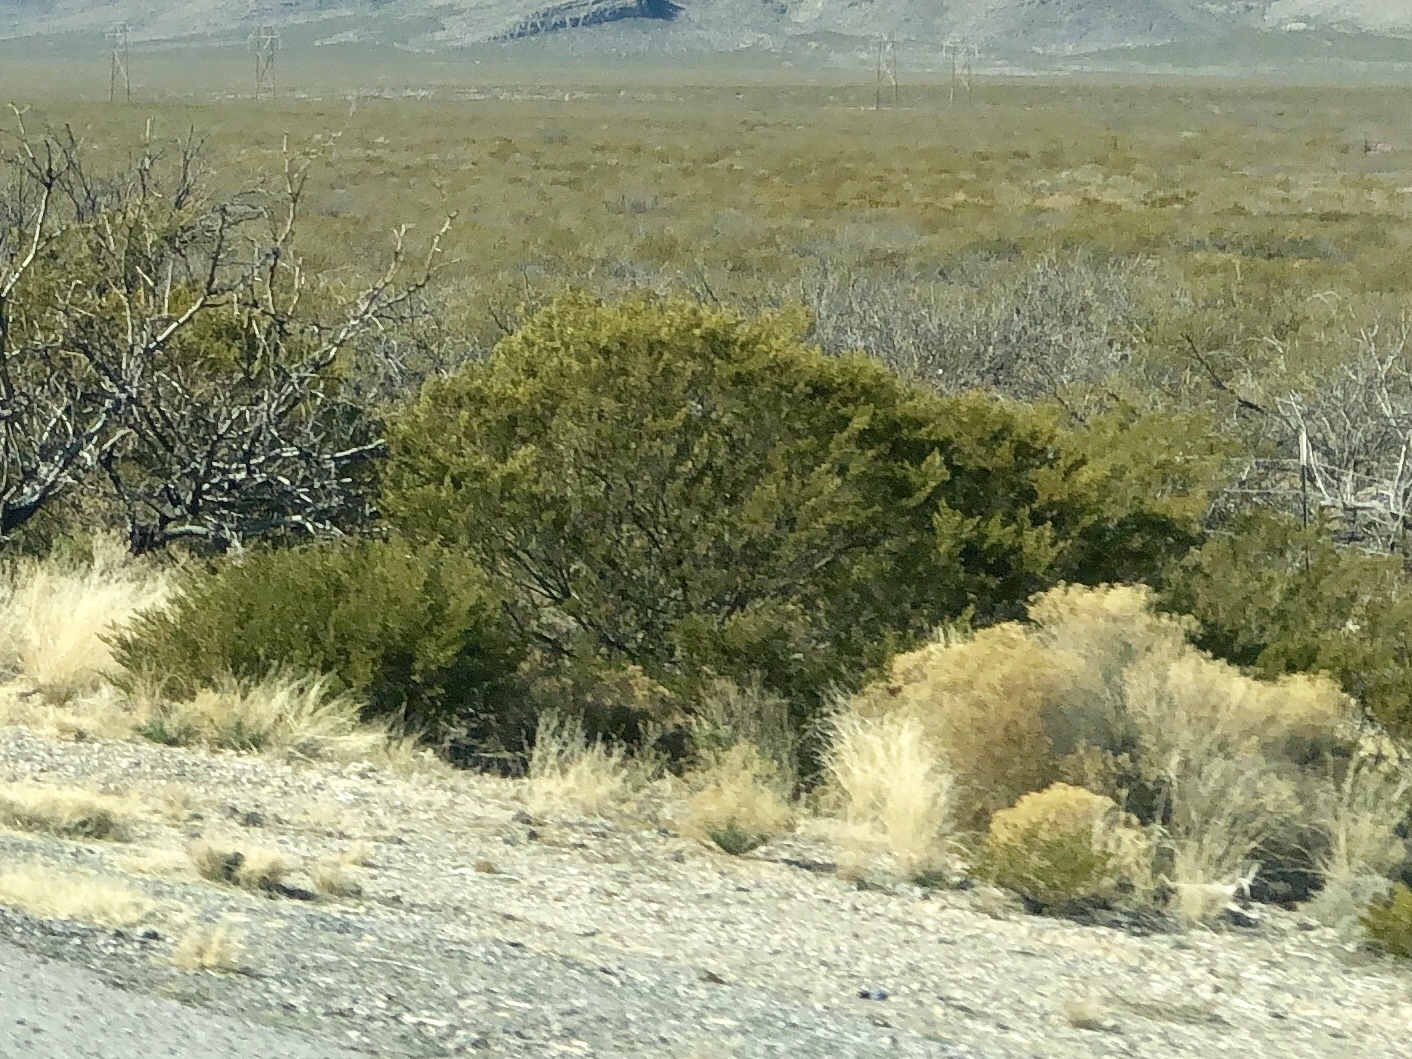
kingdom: Plantae
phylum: Tracheophyta
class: Magnoliopsida
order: Zygophyllales
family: Zygophyllaceae
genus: Larrea
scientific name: Larrea tridentata
